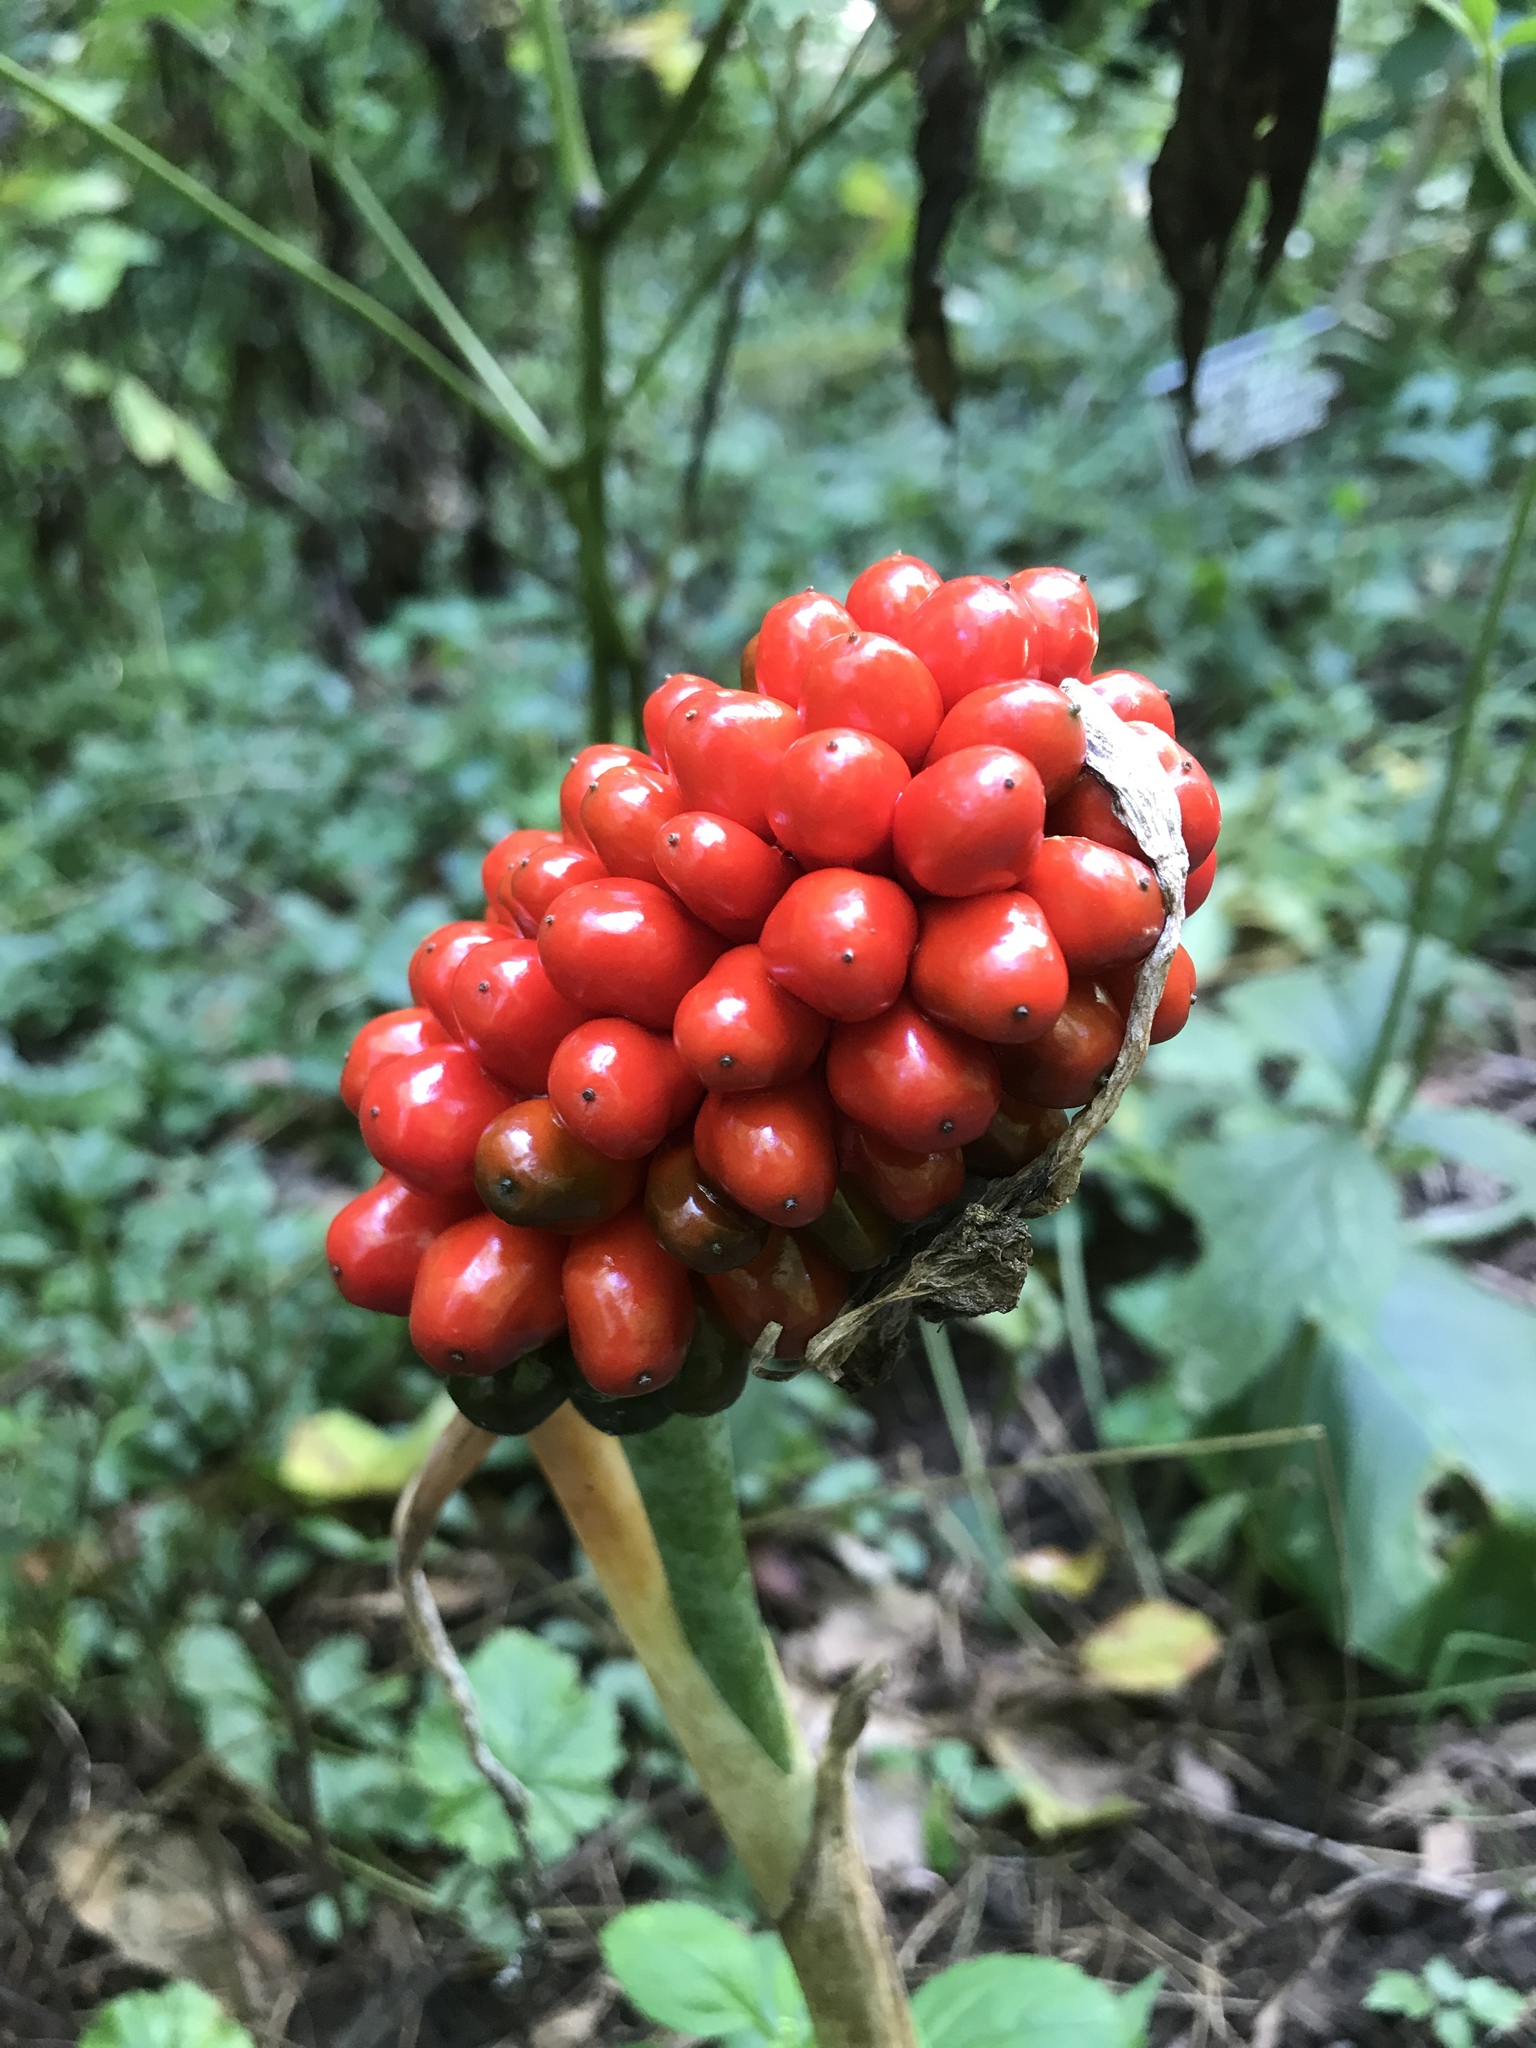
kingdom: Plantae
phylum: Tracheophyta
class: Liliopsida
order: Alismatales
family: Araceae
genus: Arisaema
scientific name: Arisaema triphyllum
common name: Jack-in-the-pulpit
